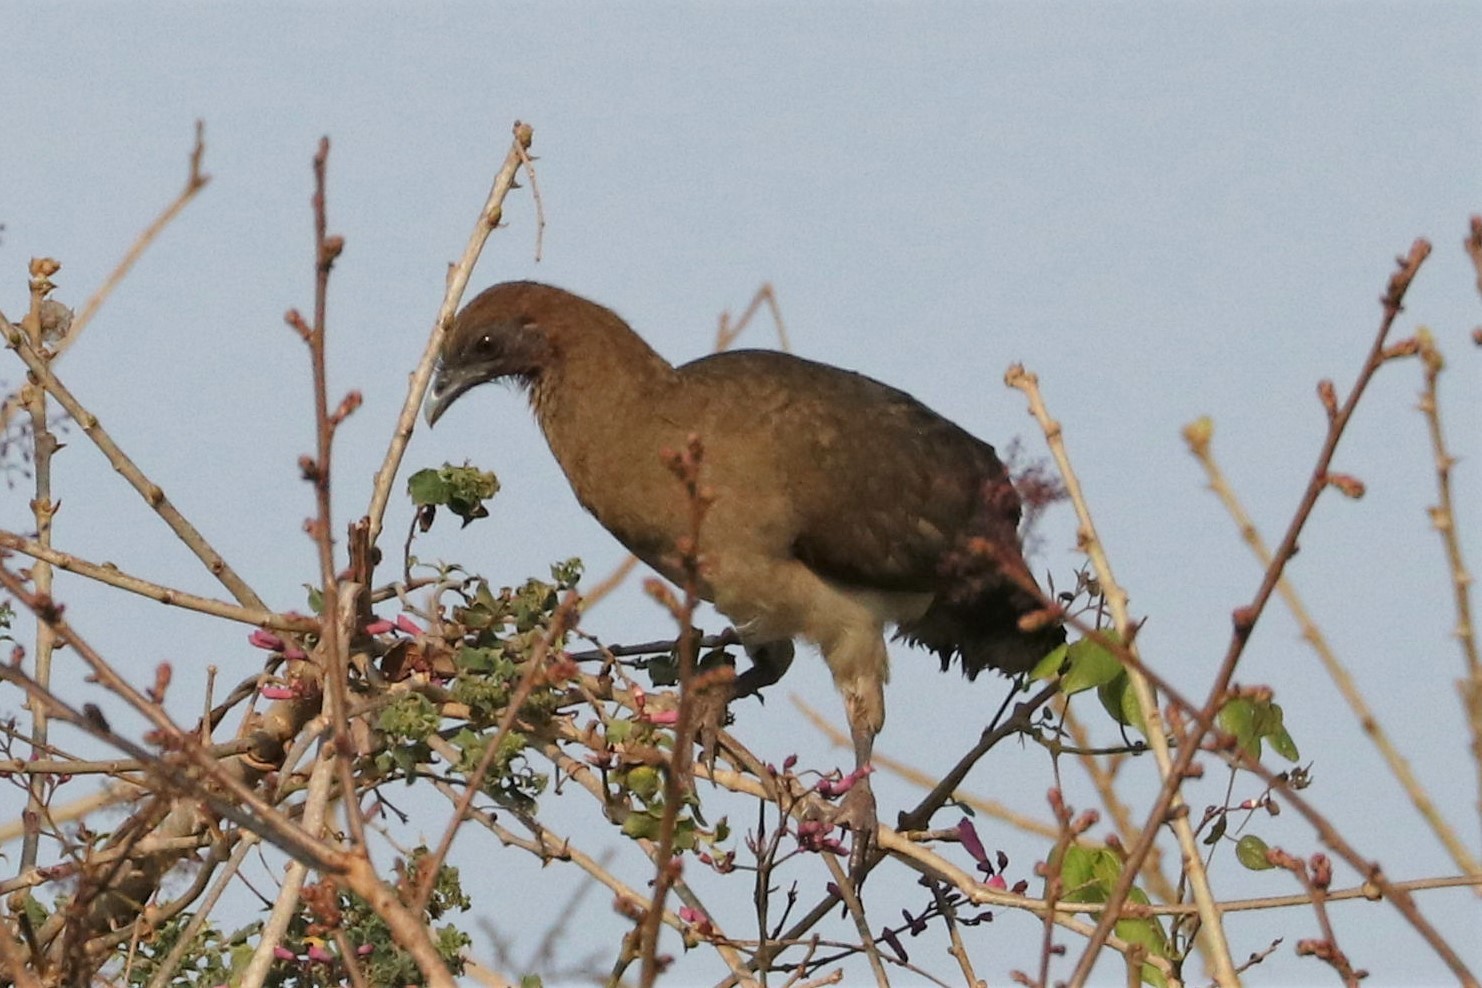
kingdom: Animalia
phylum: Chordata
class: Aves
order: Galliformes
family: Cracidae
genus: Ortalis
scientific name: Ortalis garrula
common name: Chestnut-winged chachalaca
